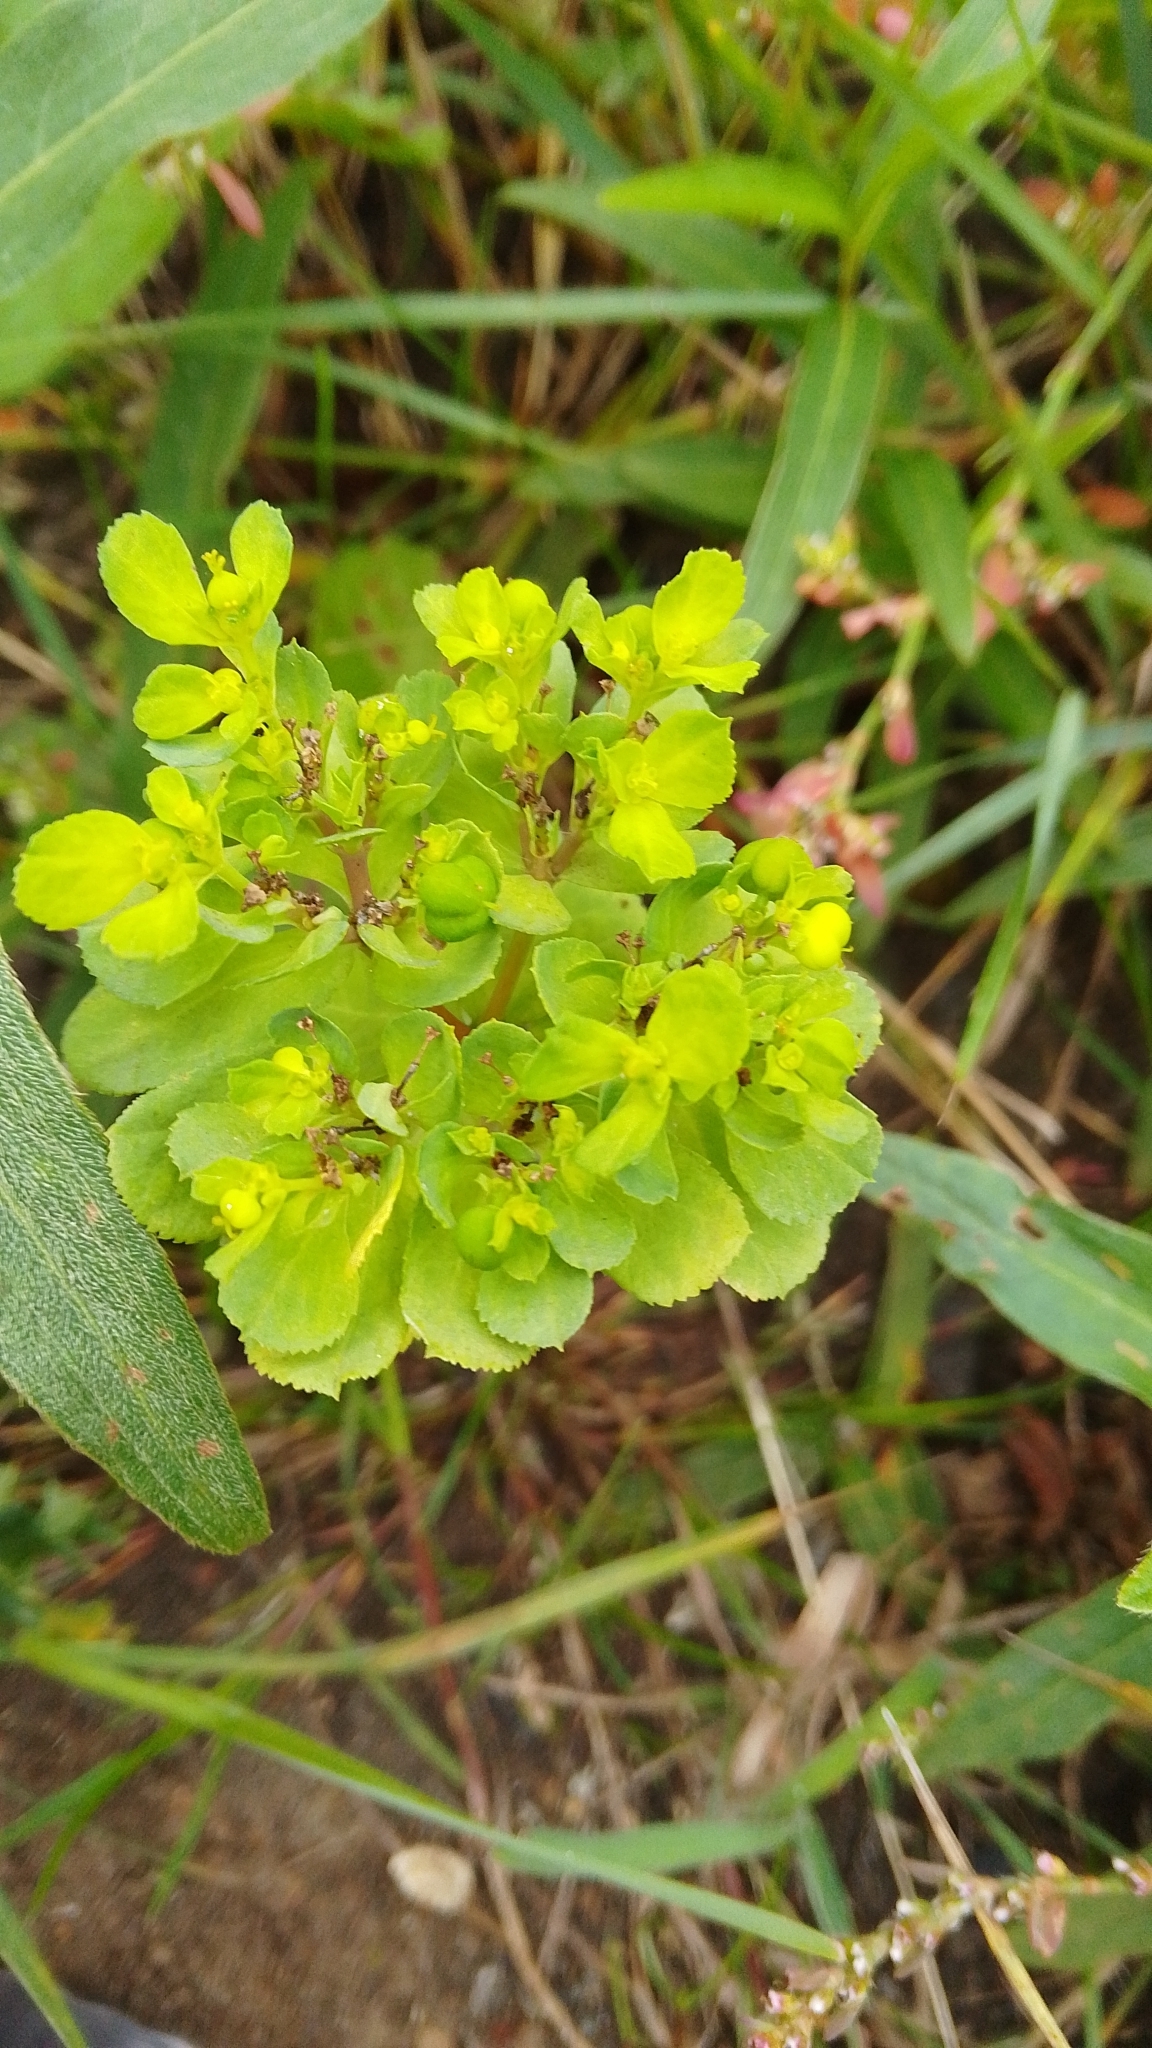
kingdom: Plantae
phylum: Tracheophyta
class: Magnoliopsida
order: Malpighiales
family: Euphorbiaceae
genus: Euphorbia
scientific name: Euphorbia helioscopia
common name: Sun spurge
